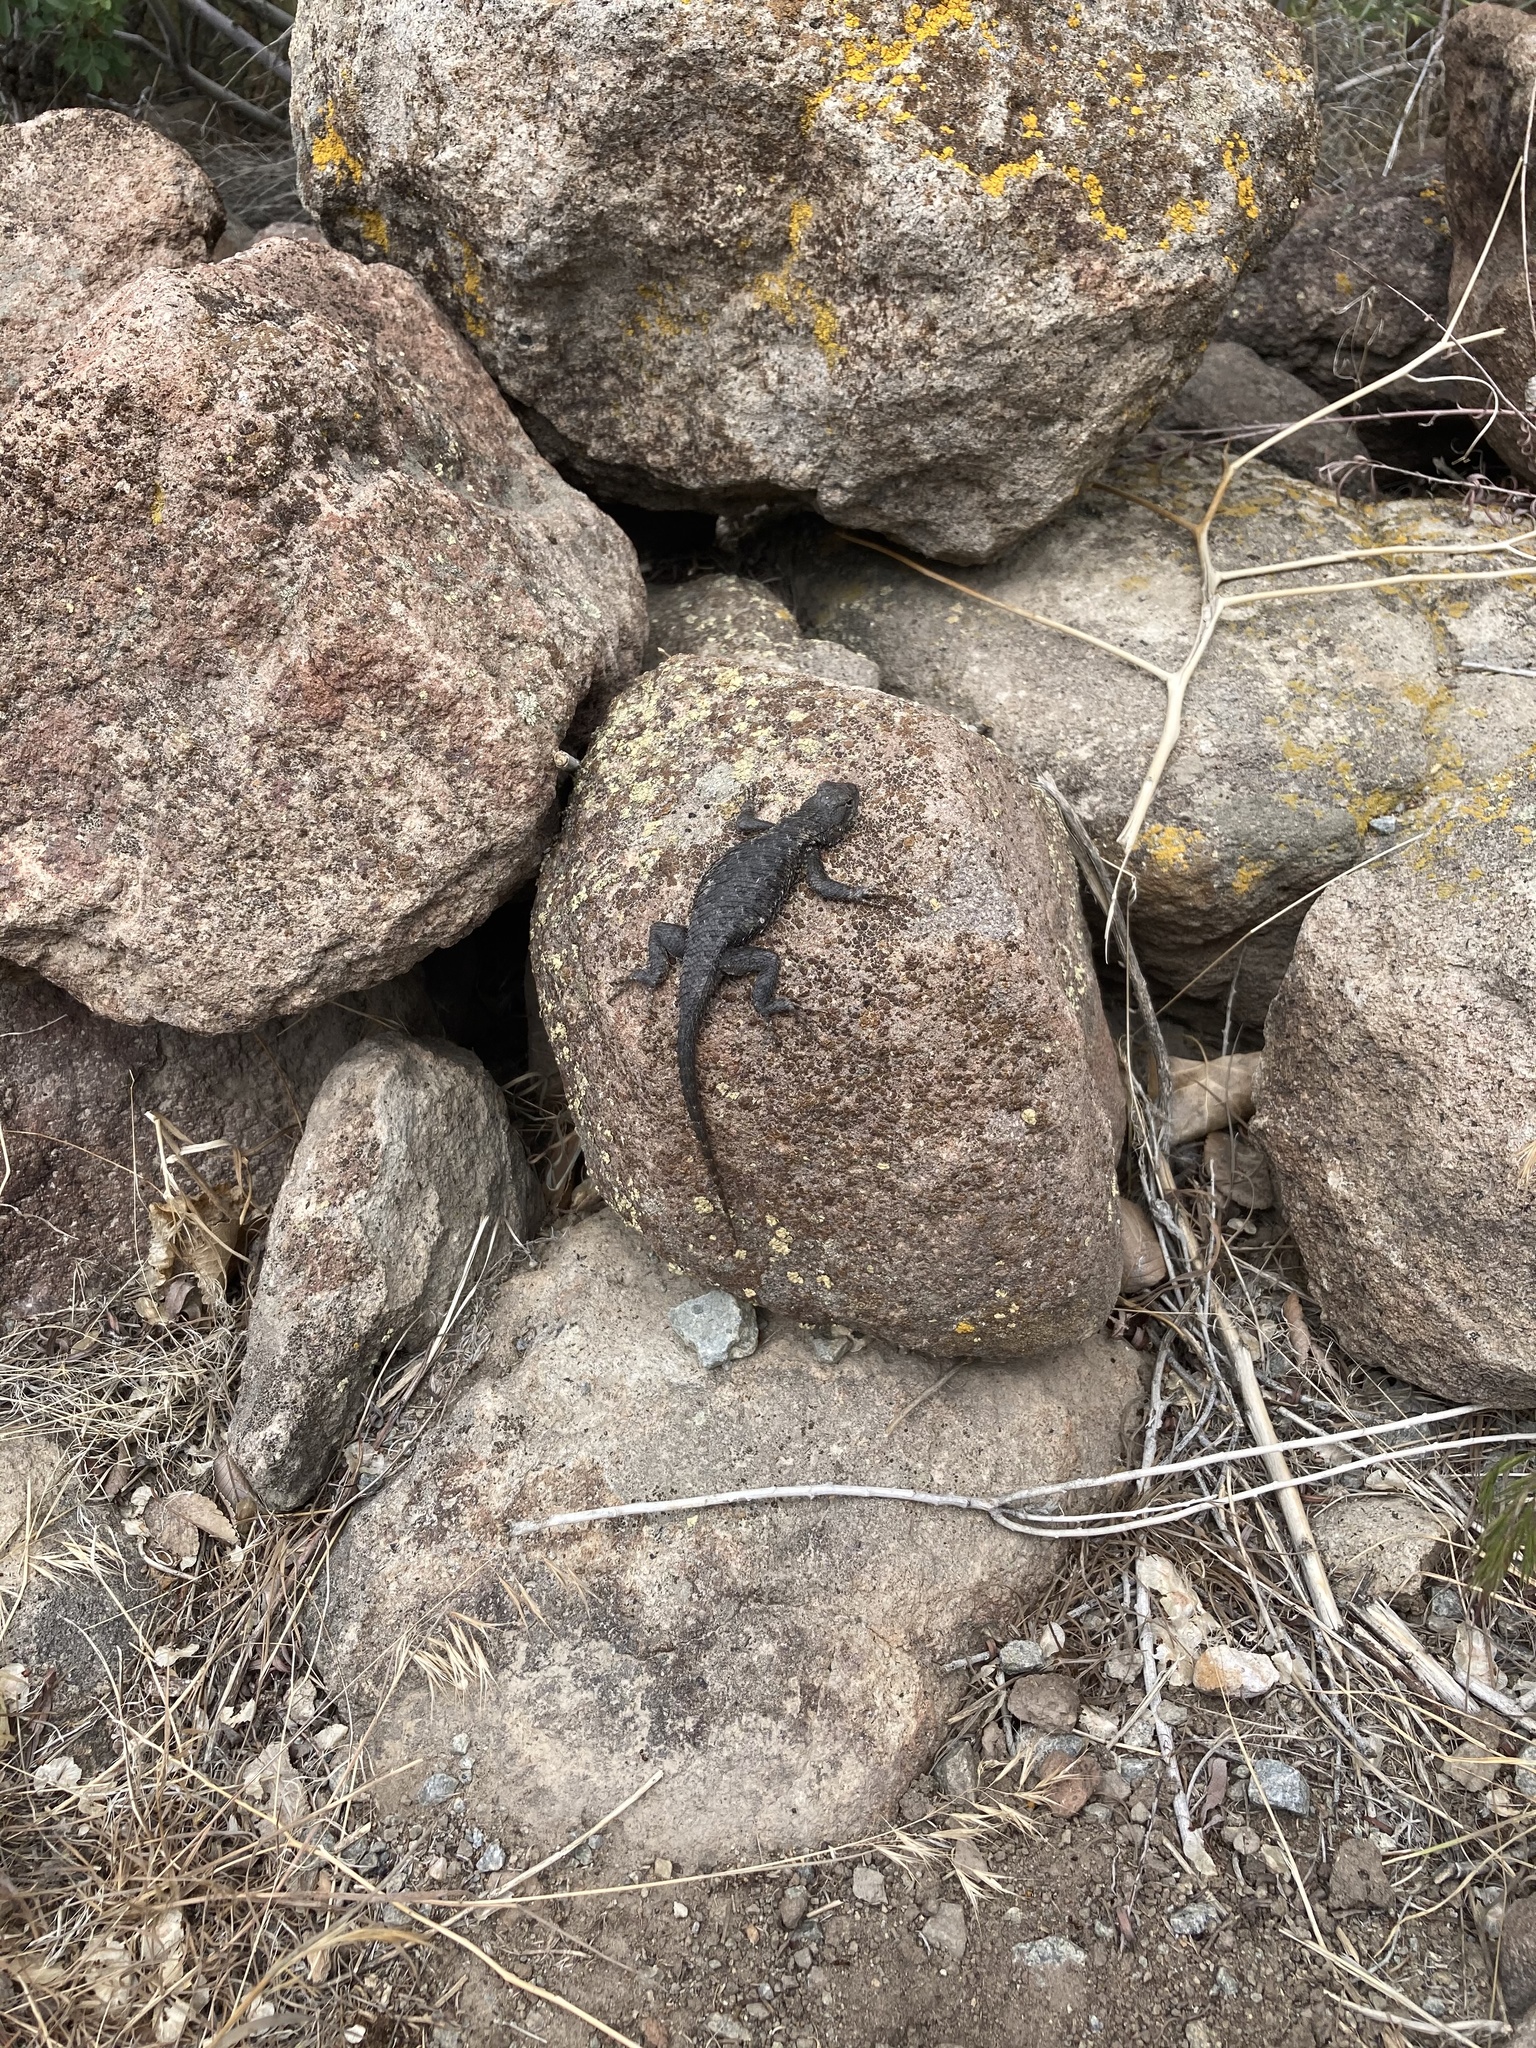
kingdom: Animalia
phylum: Chordata
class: Squamata
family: Phrynosomatidae
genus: Sceloporus
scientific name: Sceloporus occidentalis
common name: Western fence lizard
